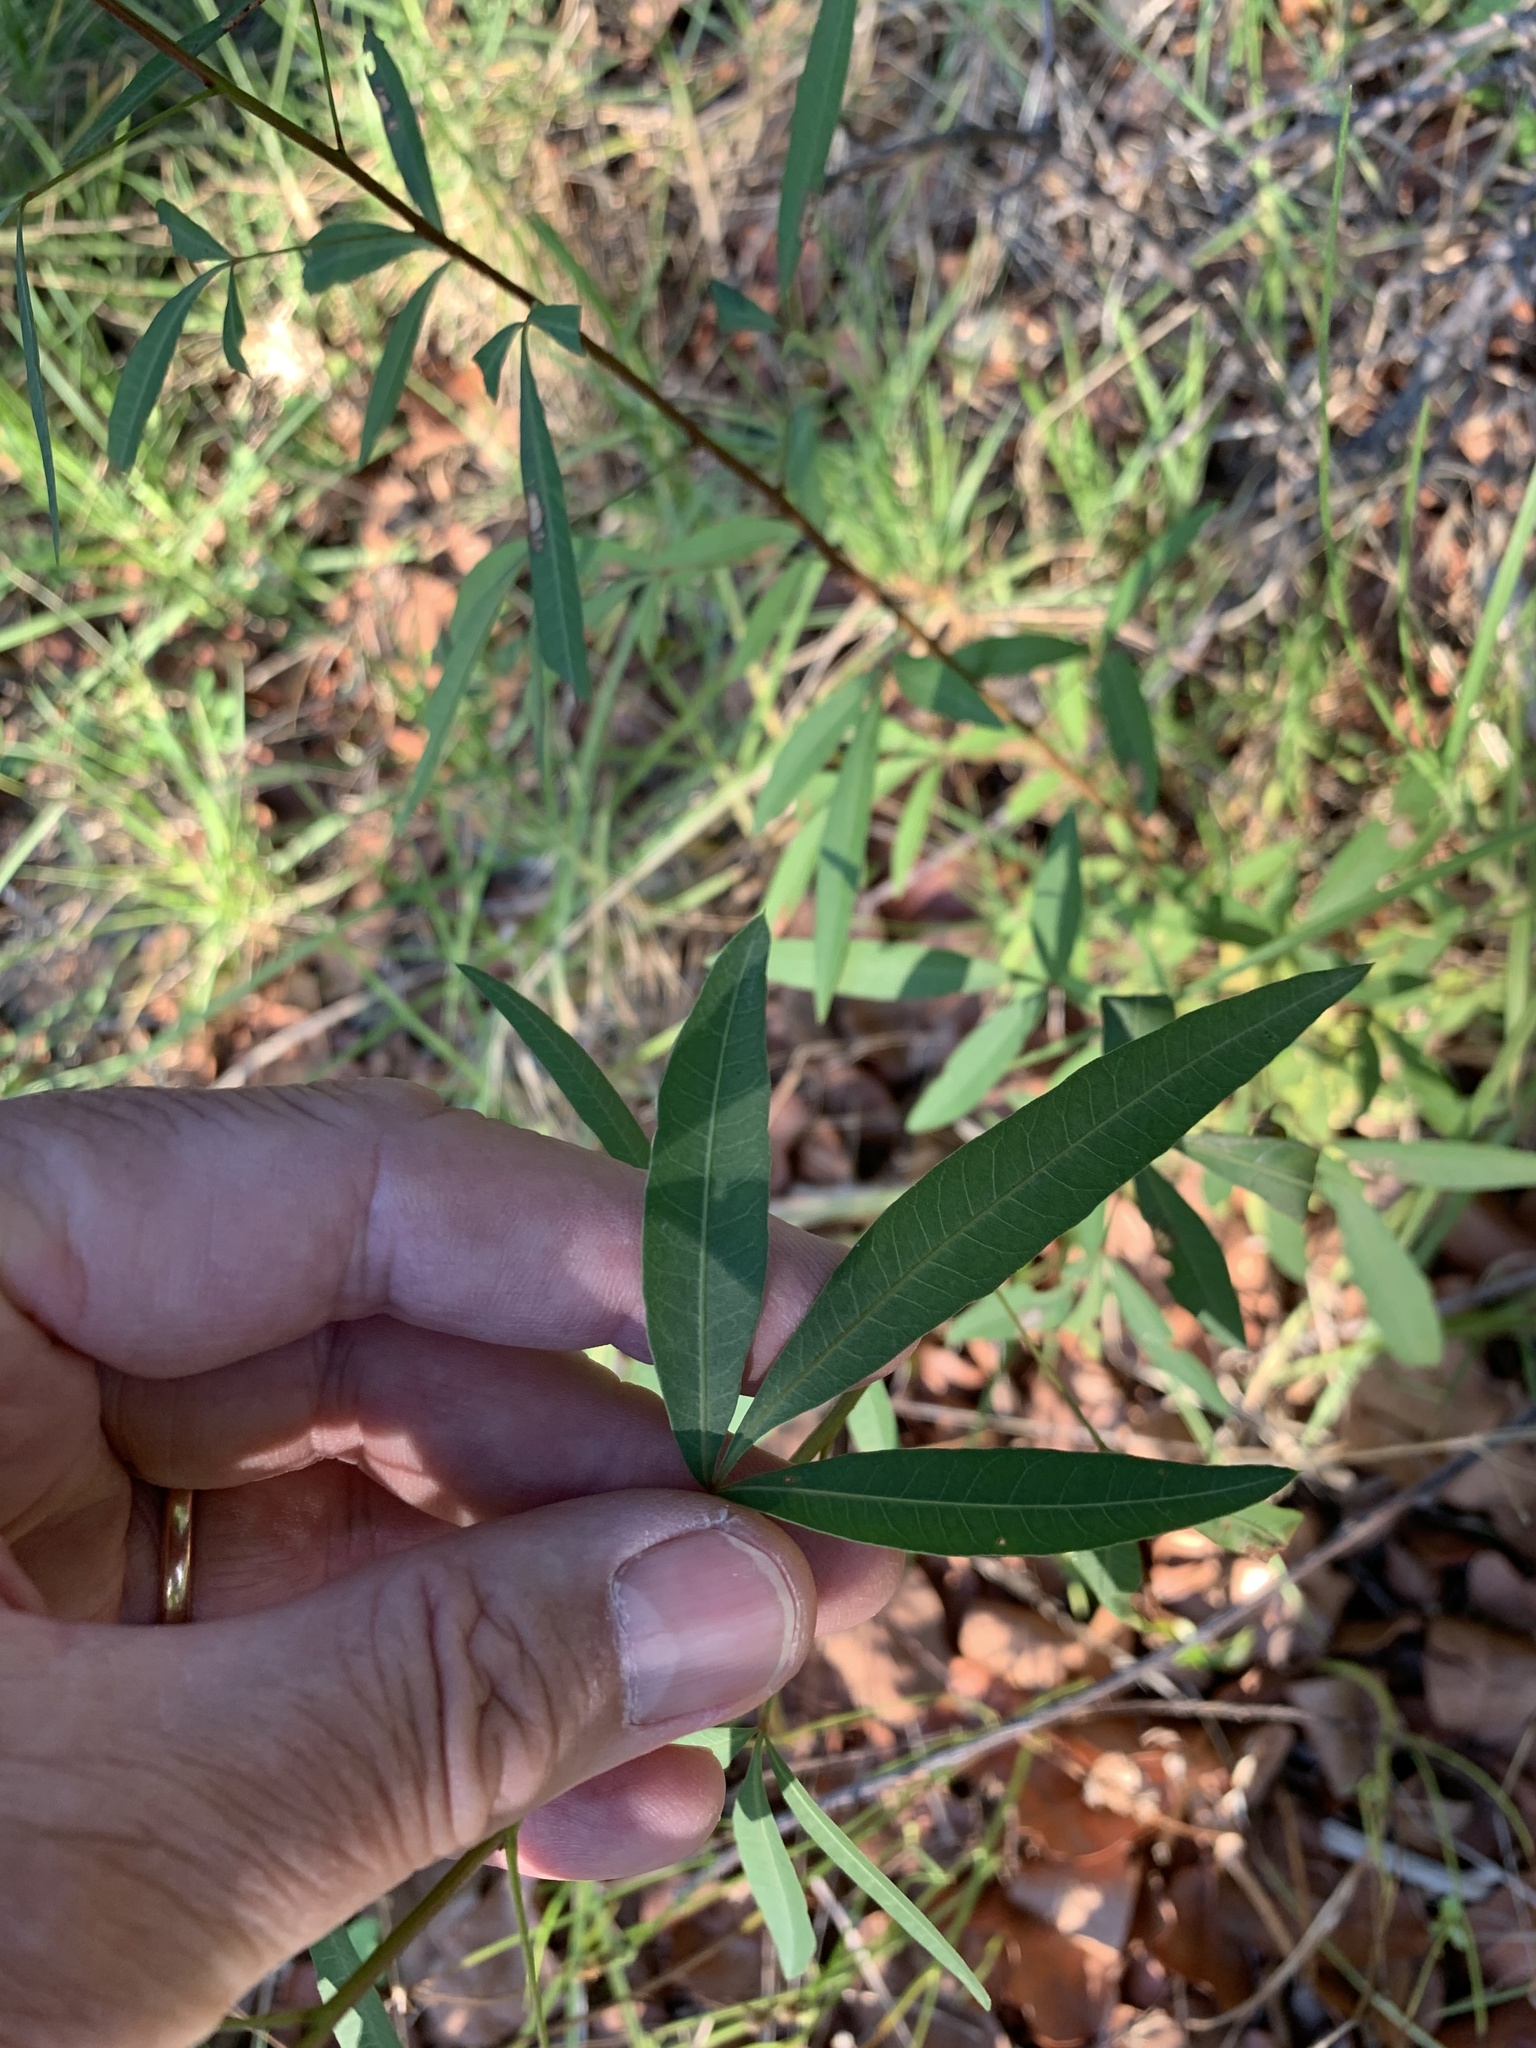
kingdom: Plantae
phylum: Tracheophyta
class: Magnoliopsida
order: Sapindales
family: Anacardiaceae
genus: Searsia
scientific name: Searsia pendulina
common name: White karee
